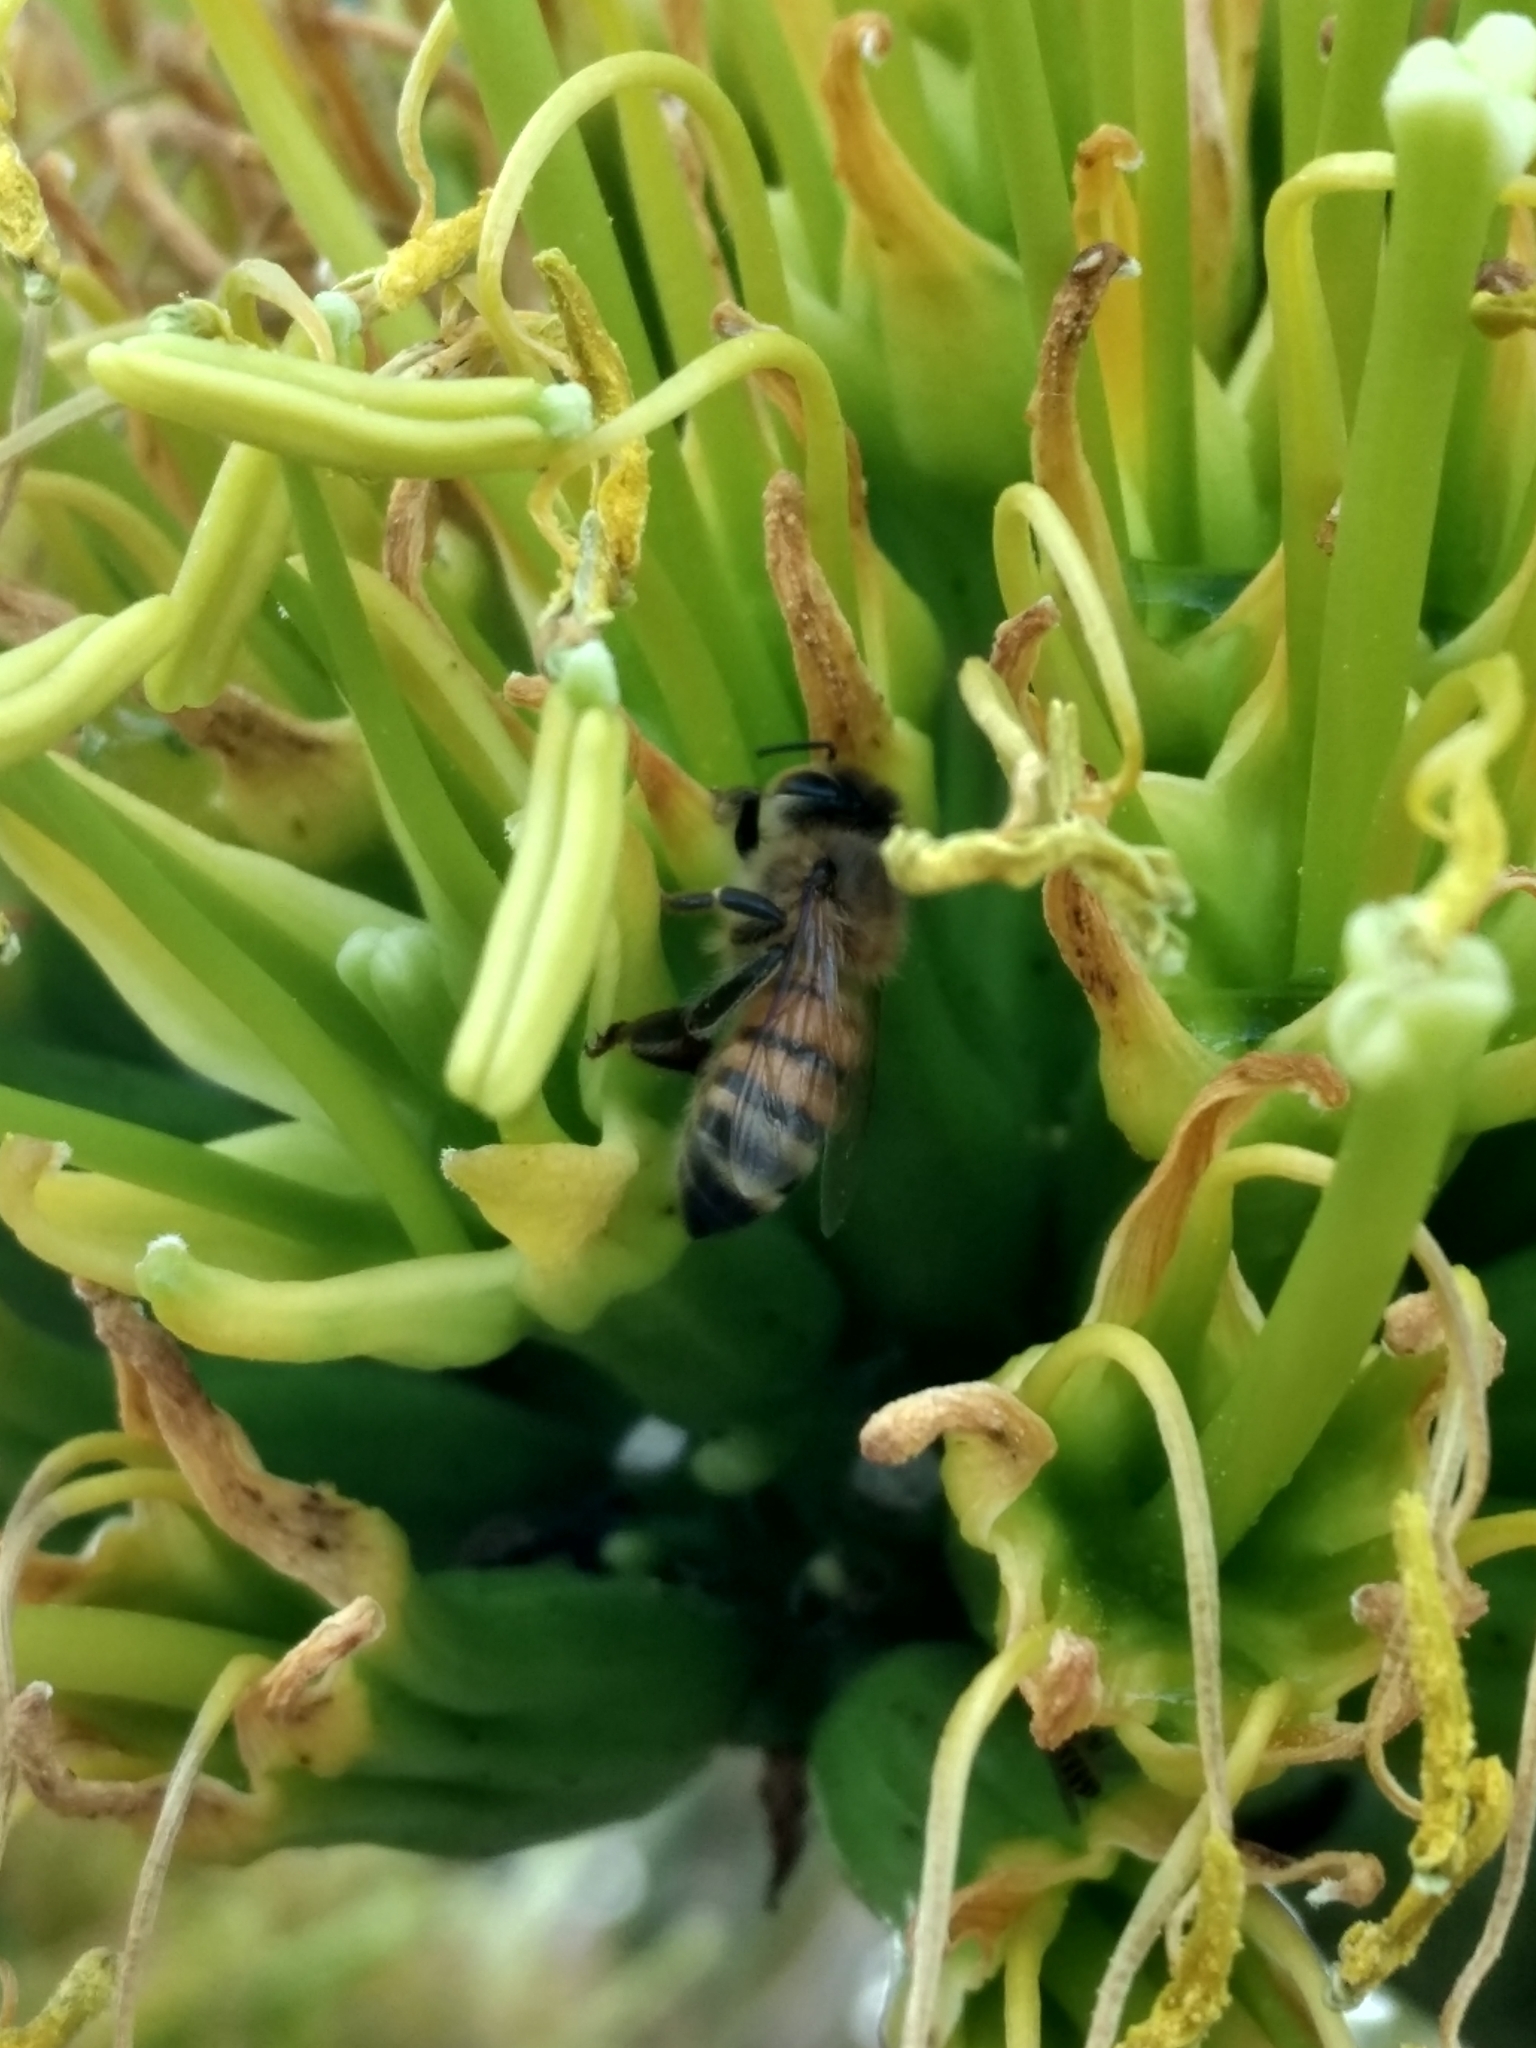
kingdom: Animalia
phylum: Arthropoda
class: Insecta
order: Hymenoptera
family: Apidae
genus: Apis
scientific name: Apis mellifera
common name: Honey bee
